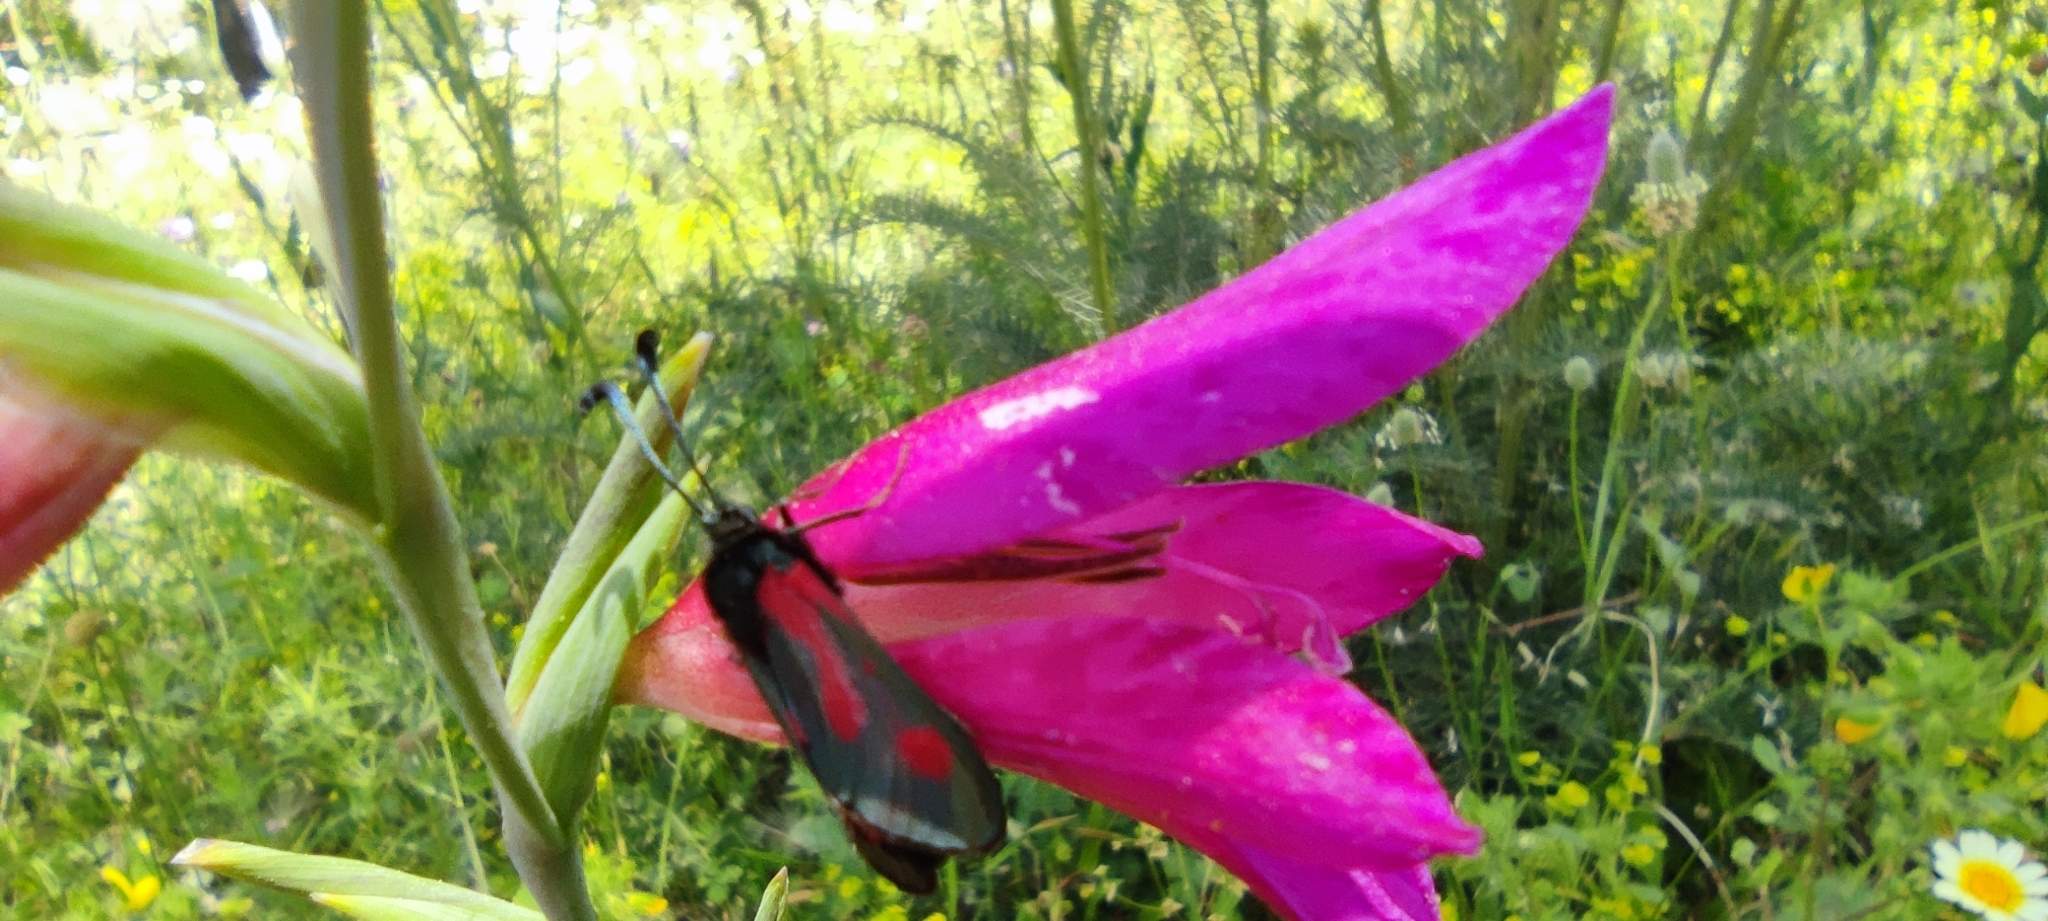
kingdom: Animalia
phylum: Arthropoda
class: Insecta
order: Lepidoptera
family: Zygaenidae
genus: Zygaena
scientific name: Zygaena sarpedon
